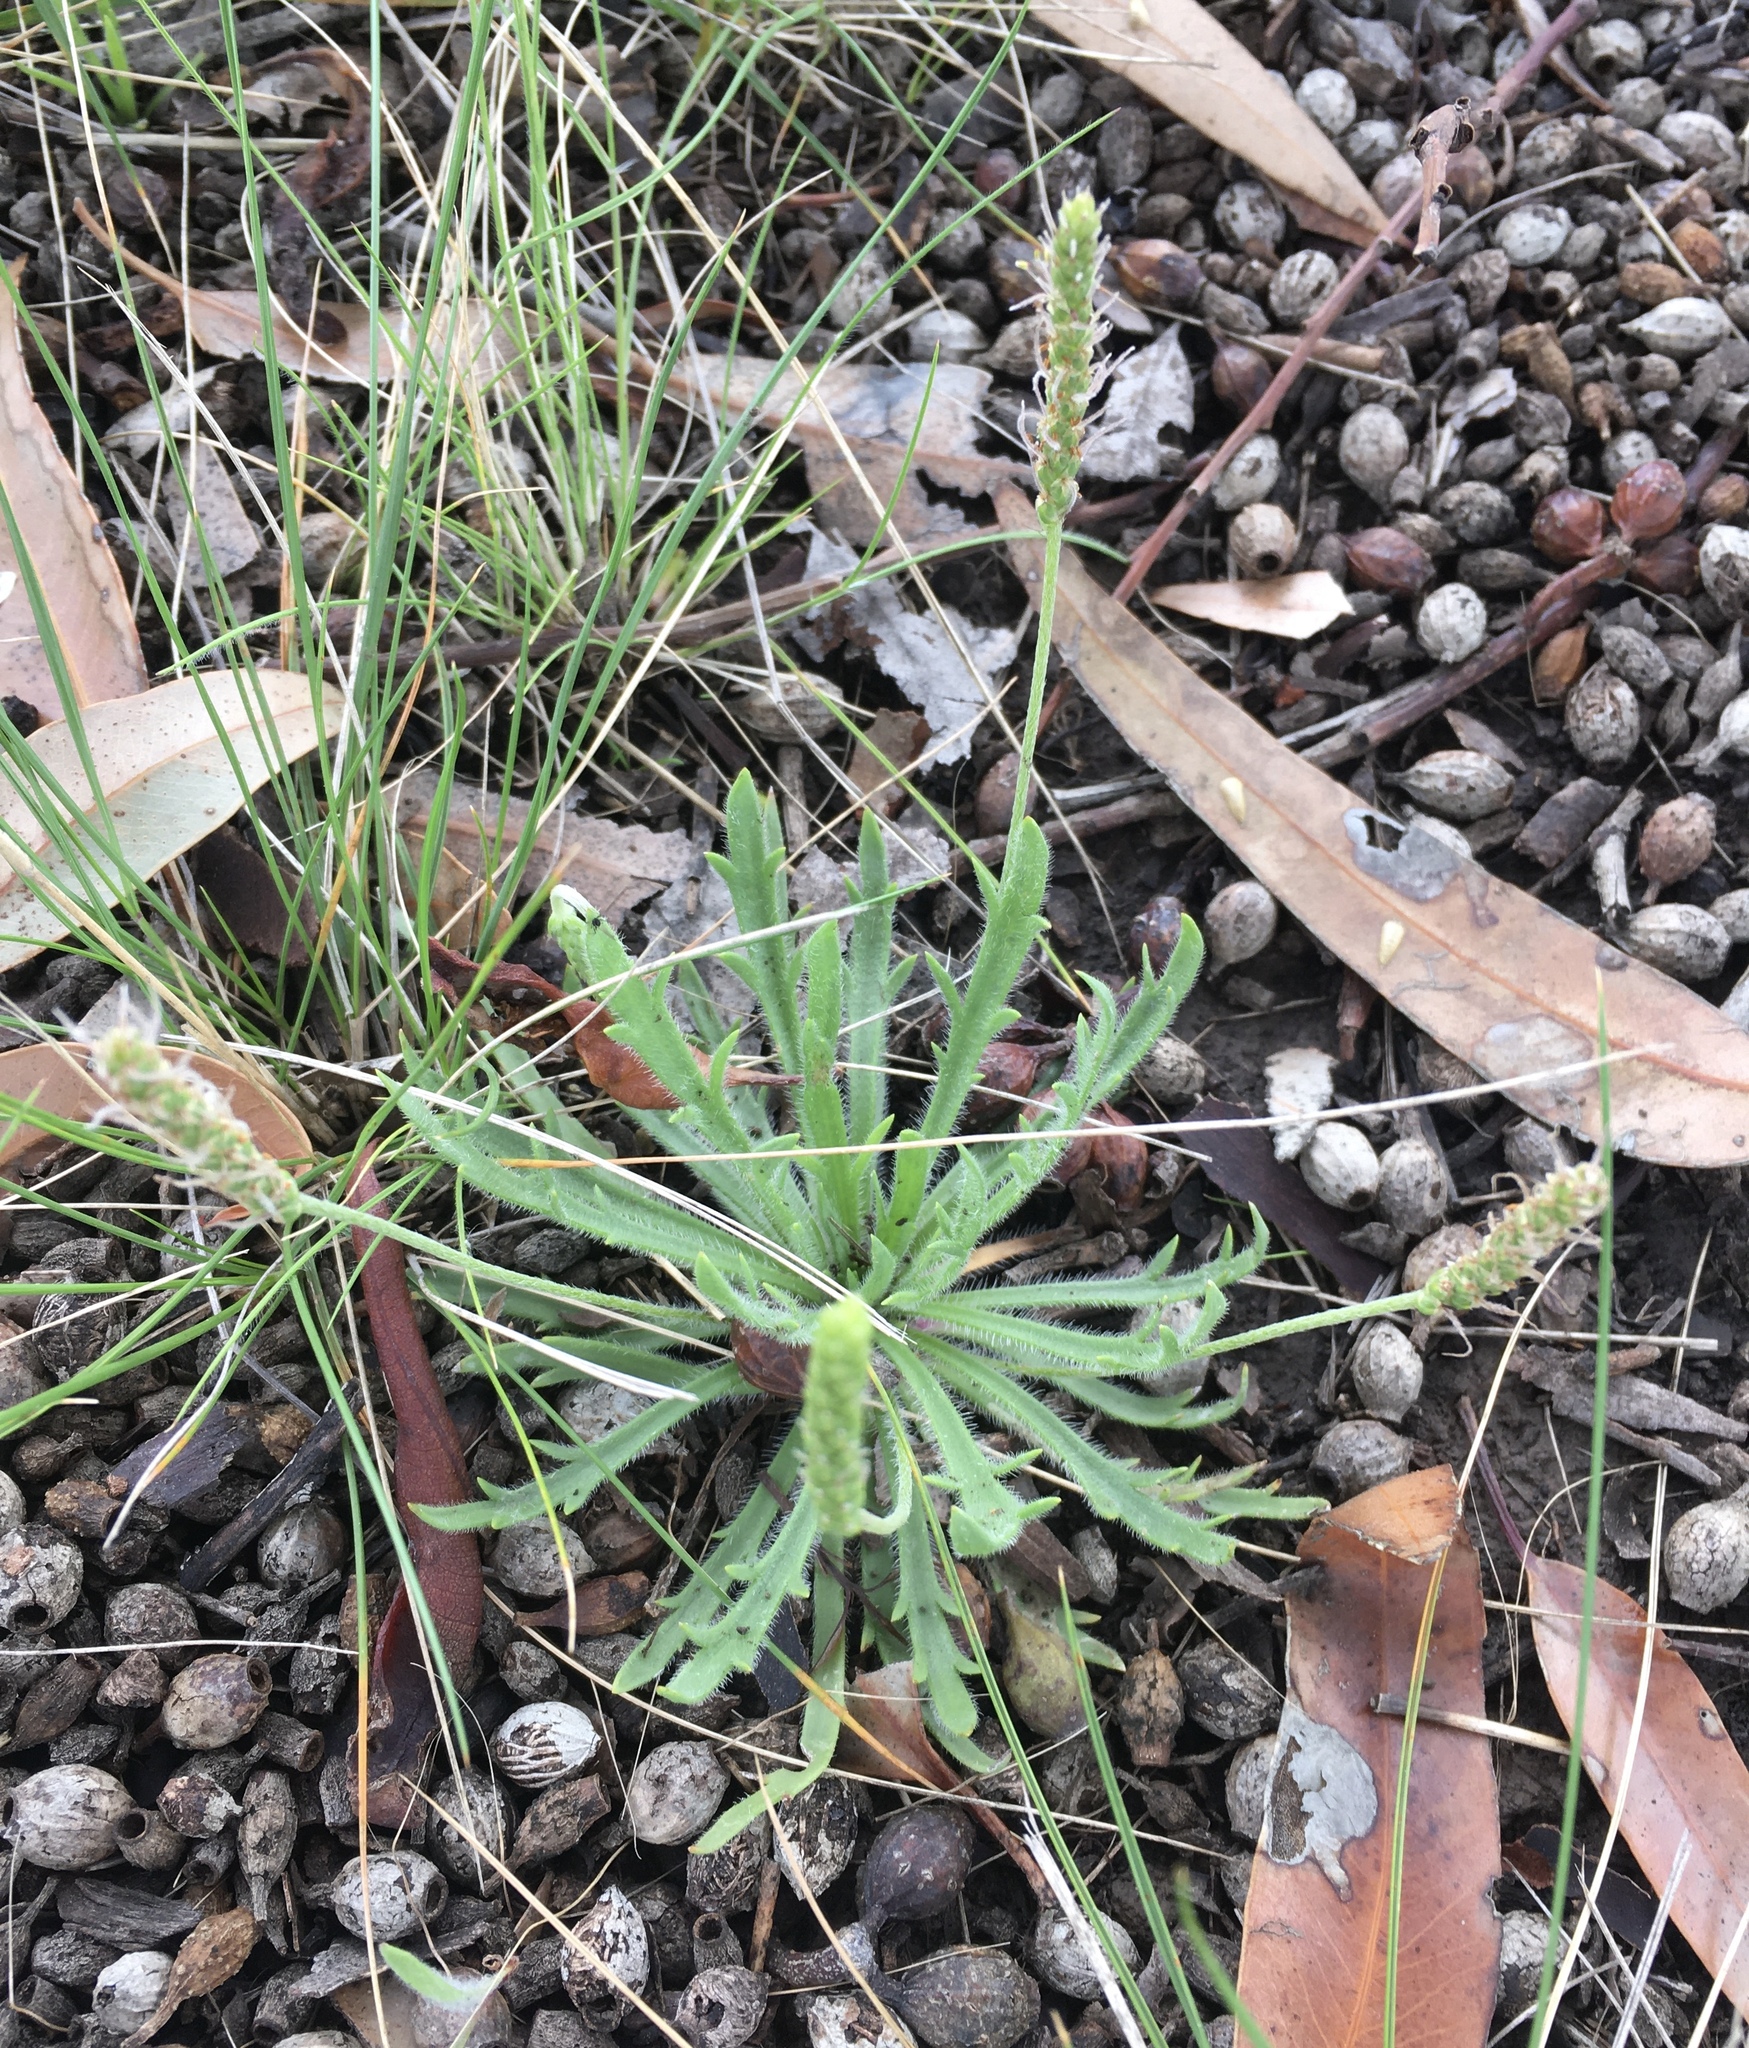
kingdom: Plantae
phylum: Tracheophyta
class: Magnoliopsida
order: Lamiales
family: Plantaginaceae
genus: Plantago
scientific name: Plantago coronopus
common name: Buck's-horn plantain
